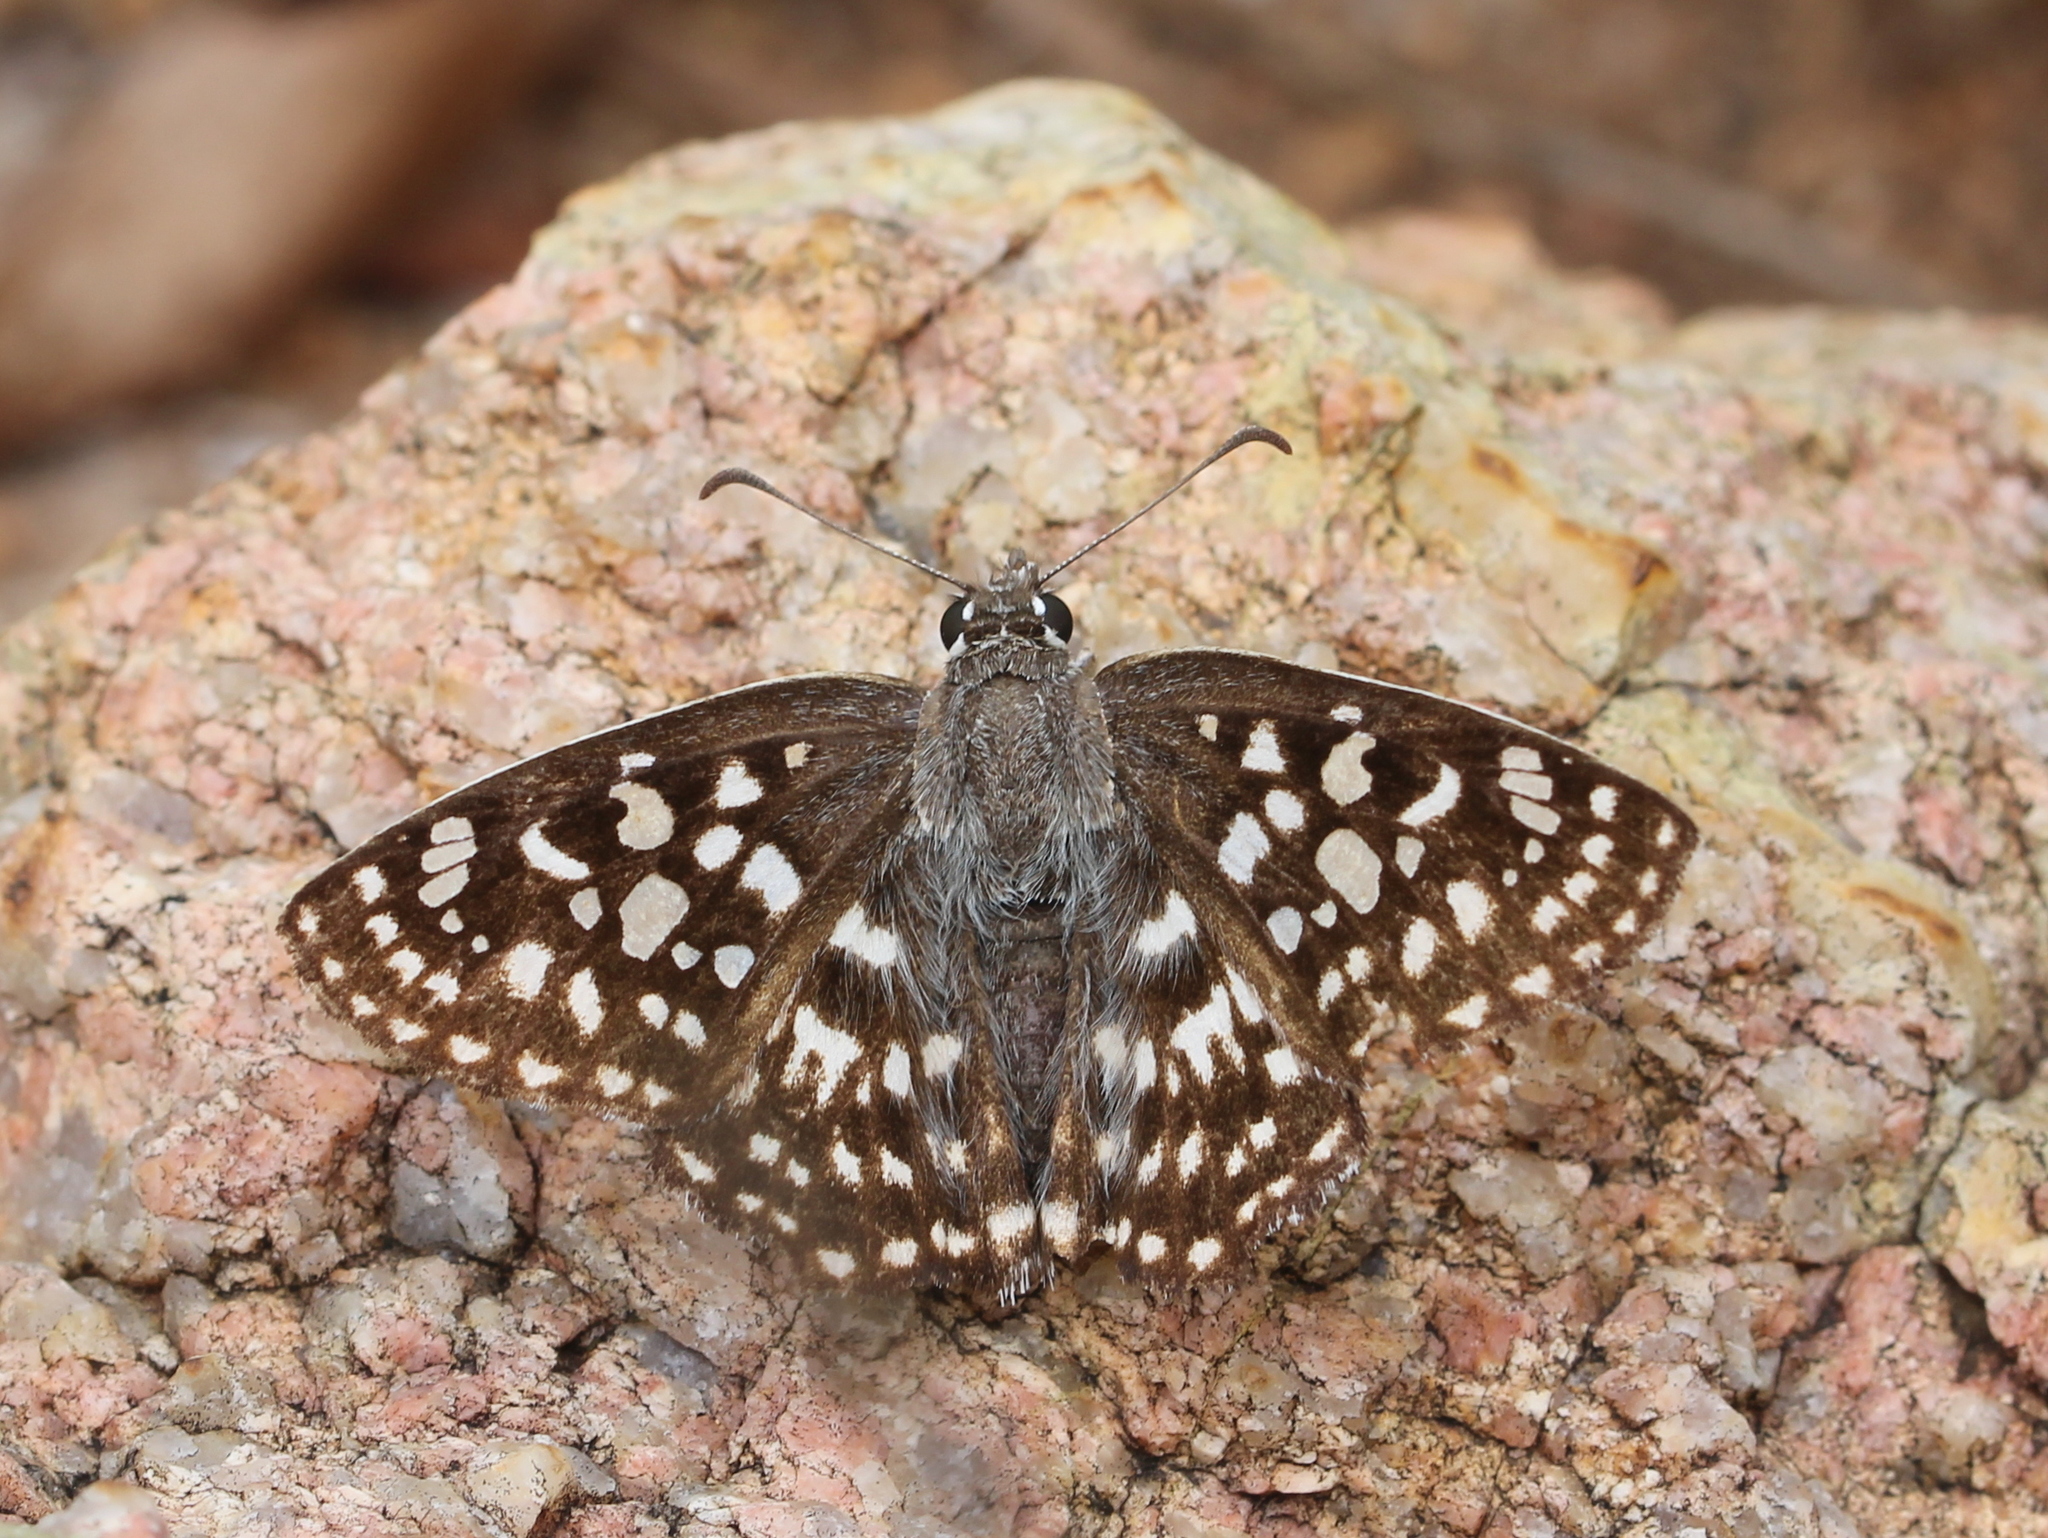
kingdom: Animalia
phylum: Arthropoda
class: Insecta
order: Lepidoptera
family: Hesperiidae
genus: Caprona
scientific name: Caprona agama
